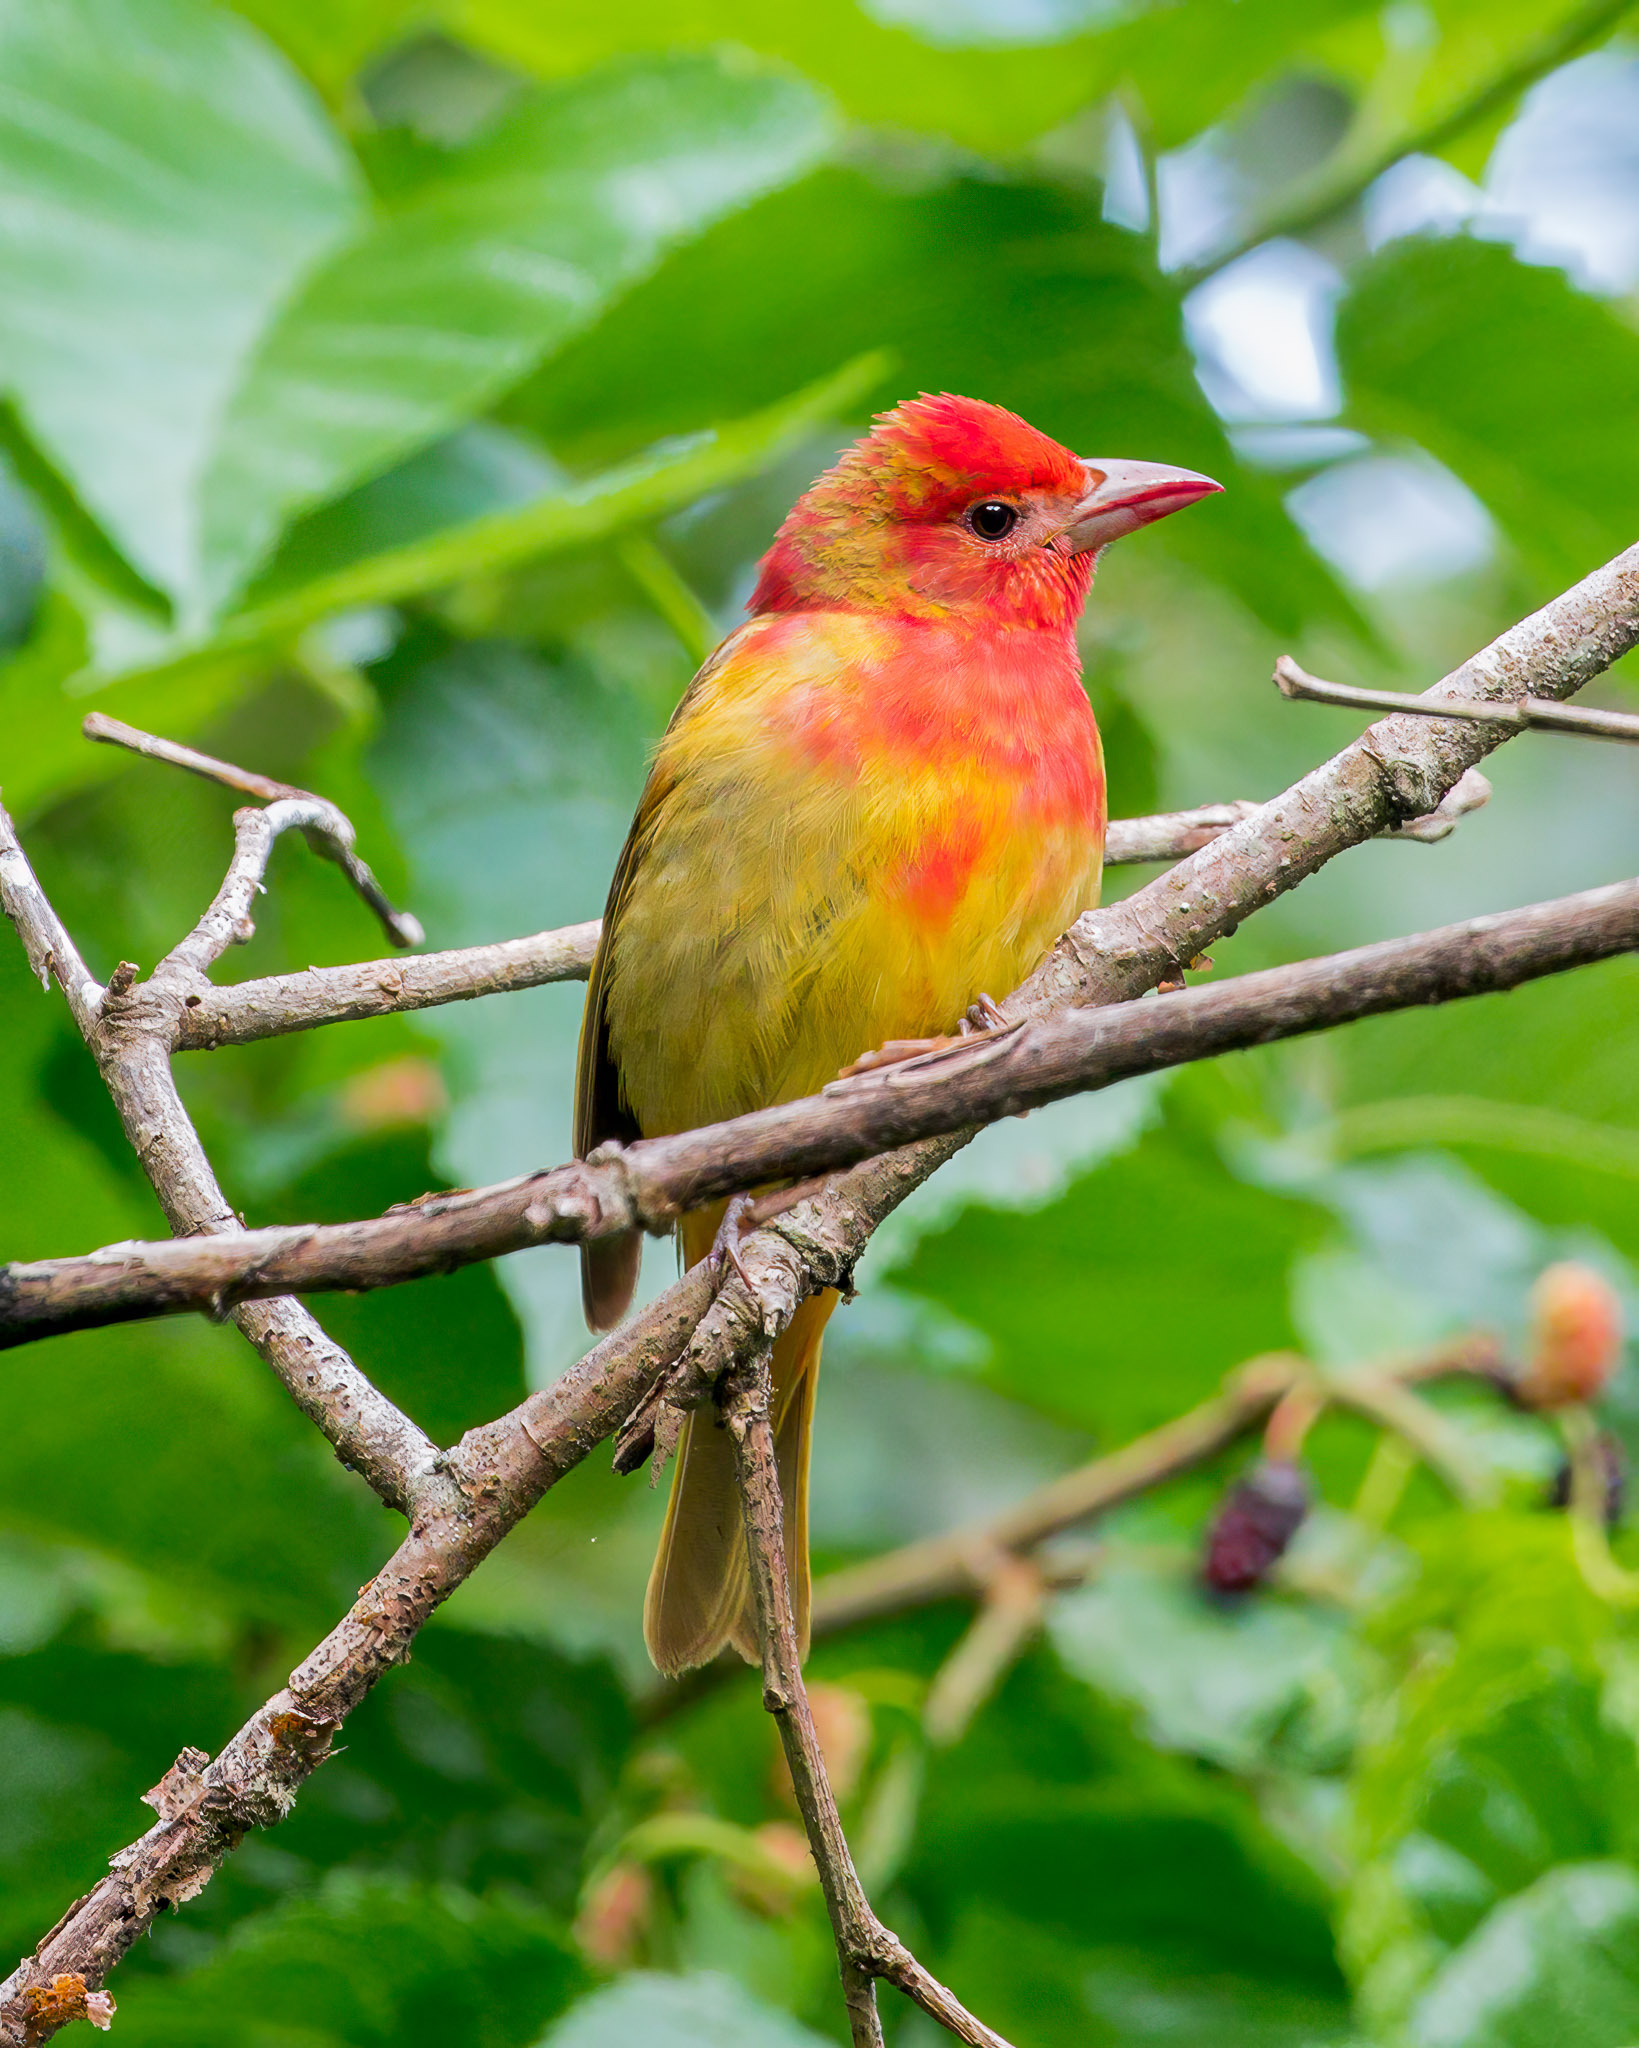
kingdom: Animalia
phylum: Chordata
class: Aves
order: Passeriformes
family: Cardinalidae
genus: Piranga
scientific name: Piranga rubra
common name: Summer tanager
